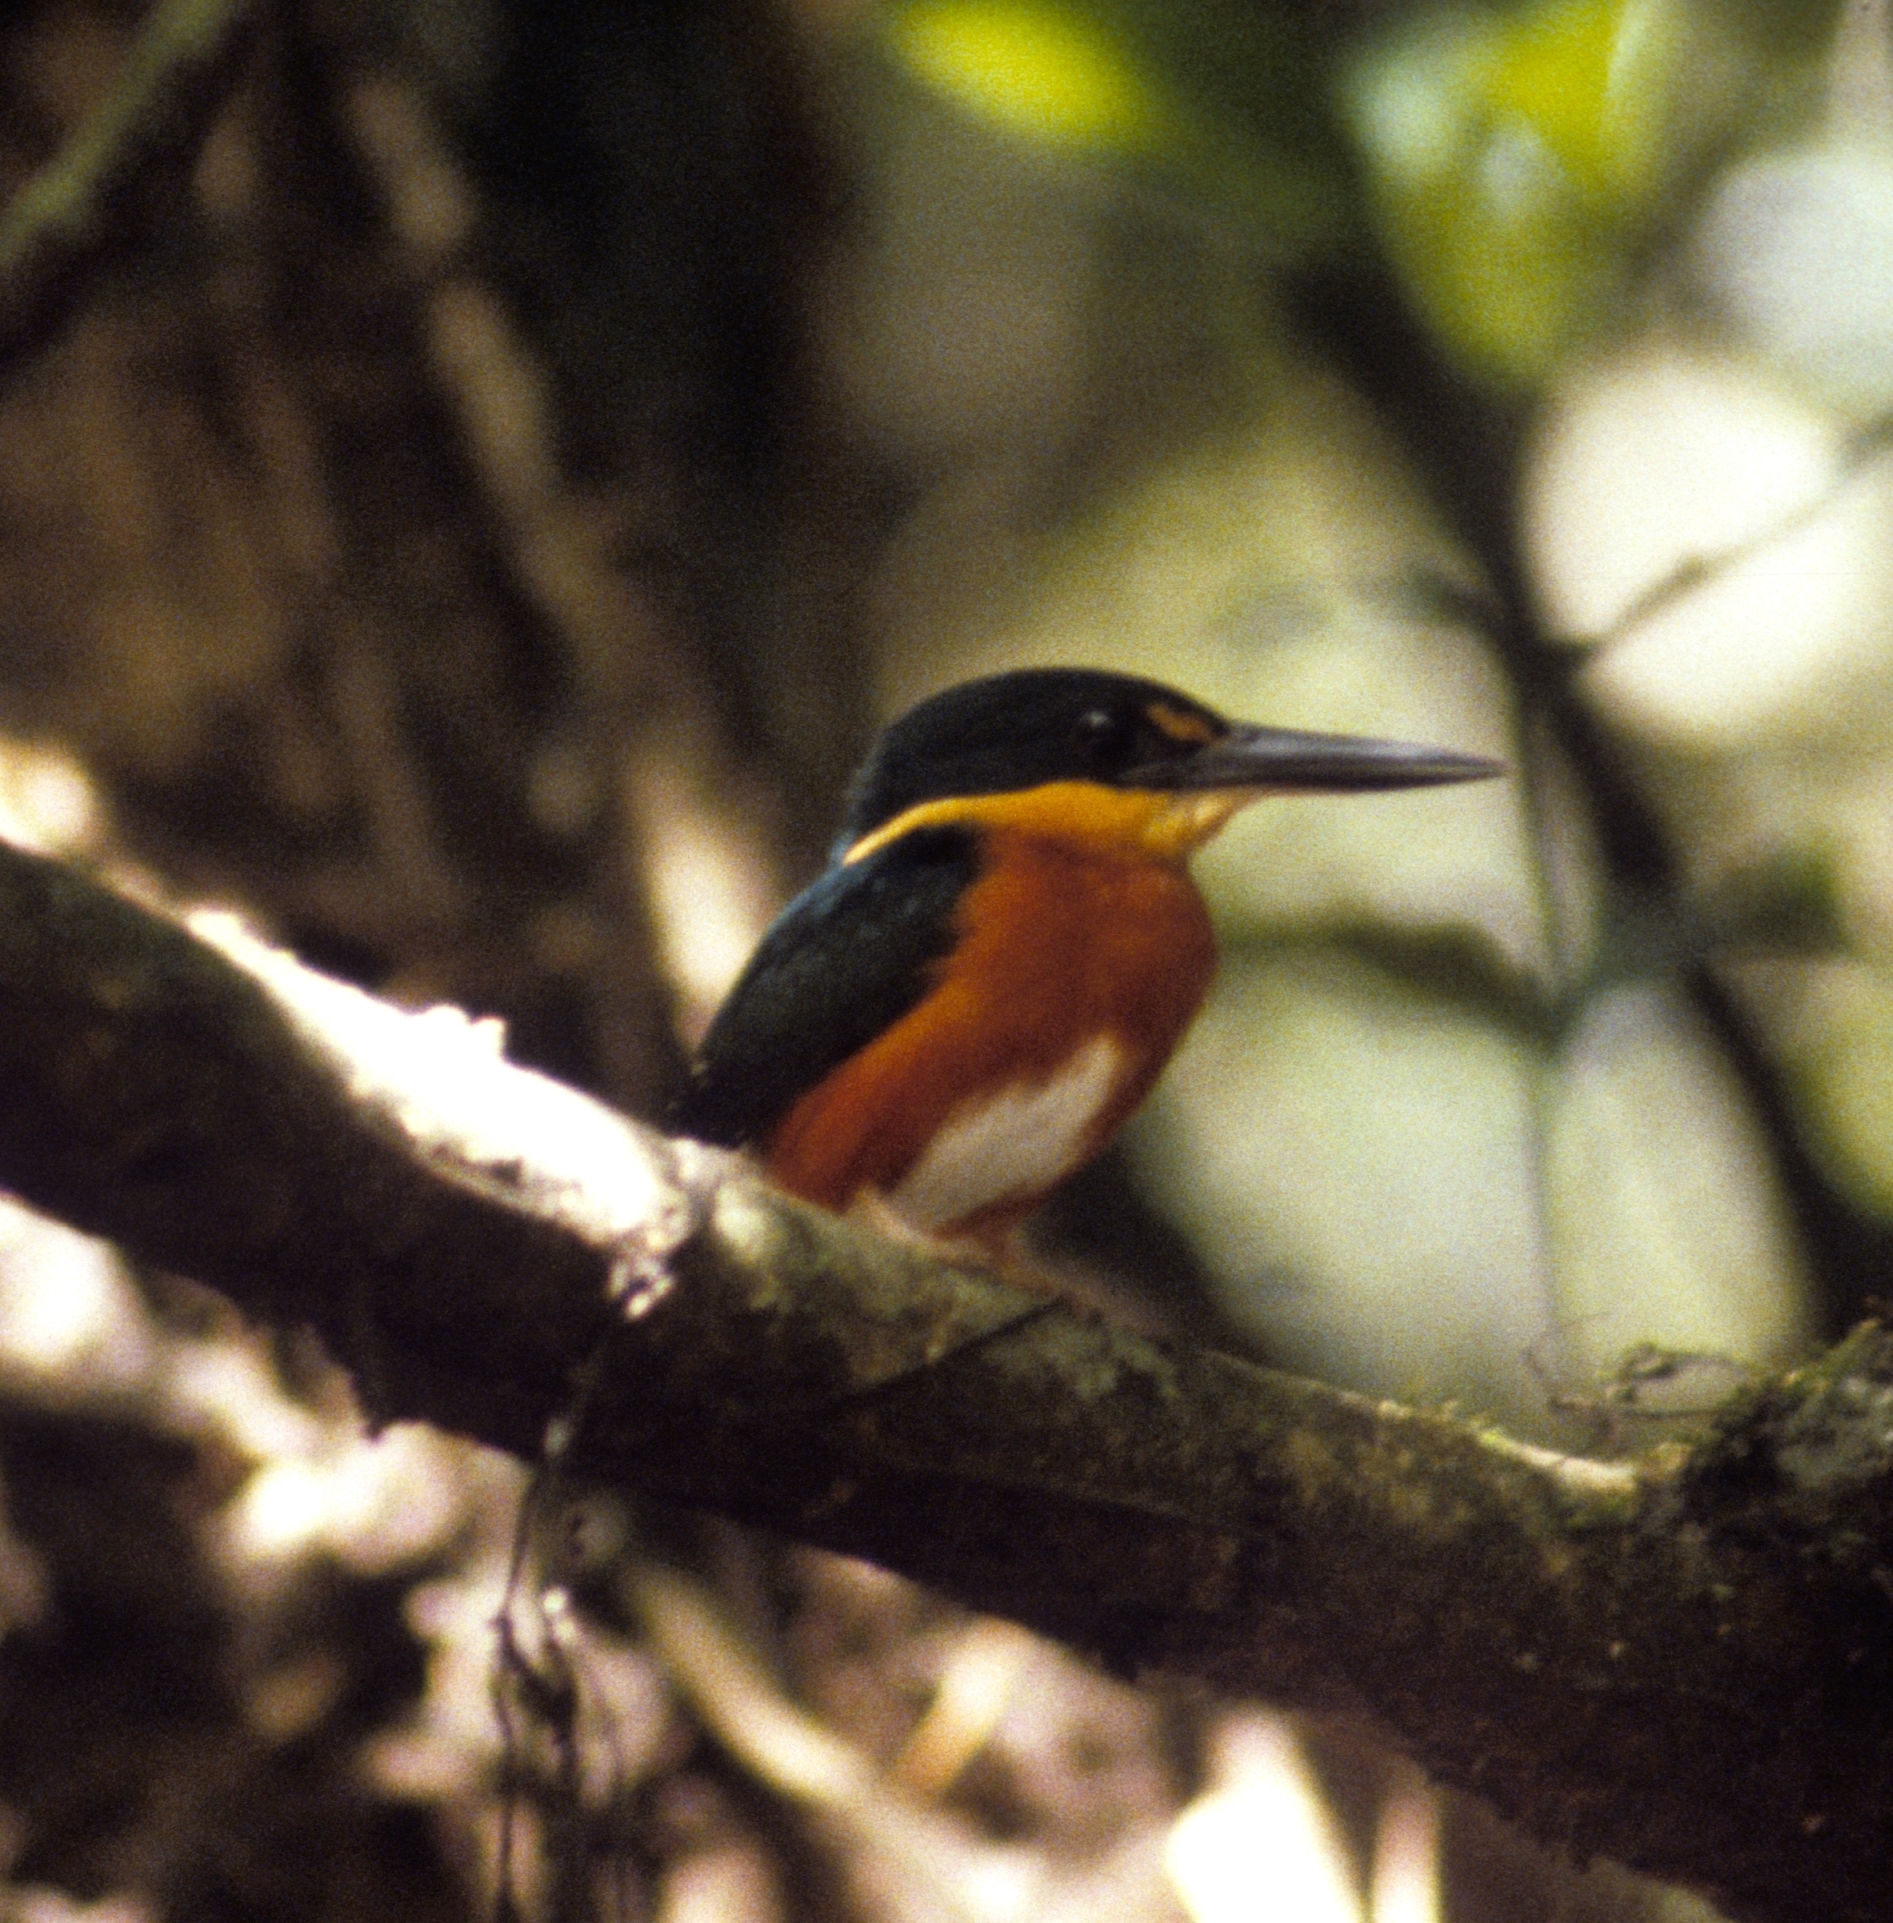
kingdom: Animalia
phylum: Chordata
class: Aves
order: Coraciiformes
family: Alcedinidae
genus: Chloroceryle
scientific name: Chloroceryle aenea
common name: American pygmy kingfisher
